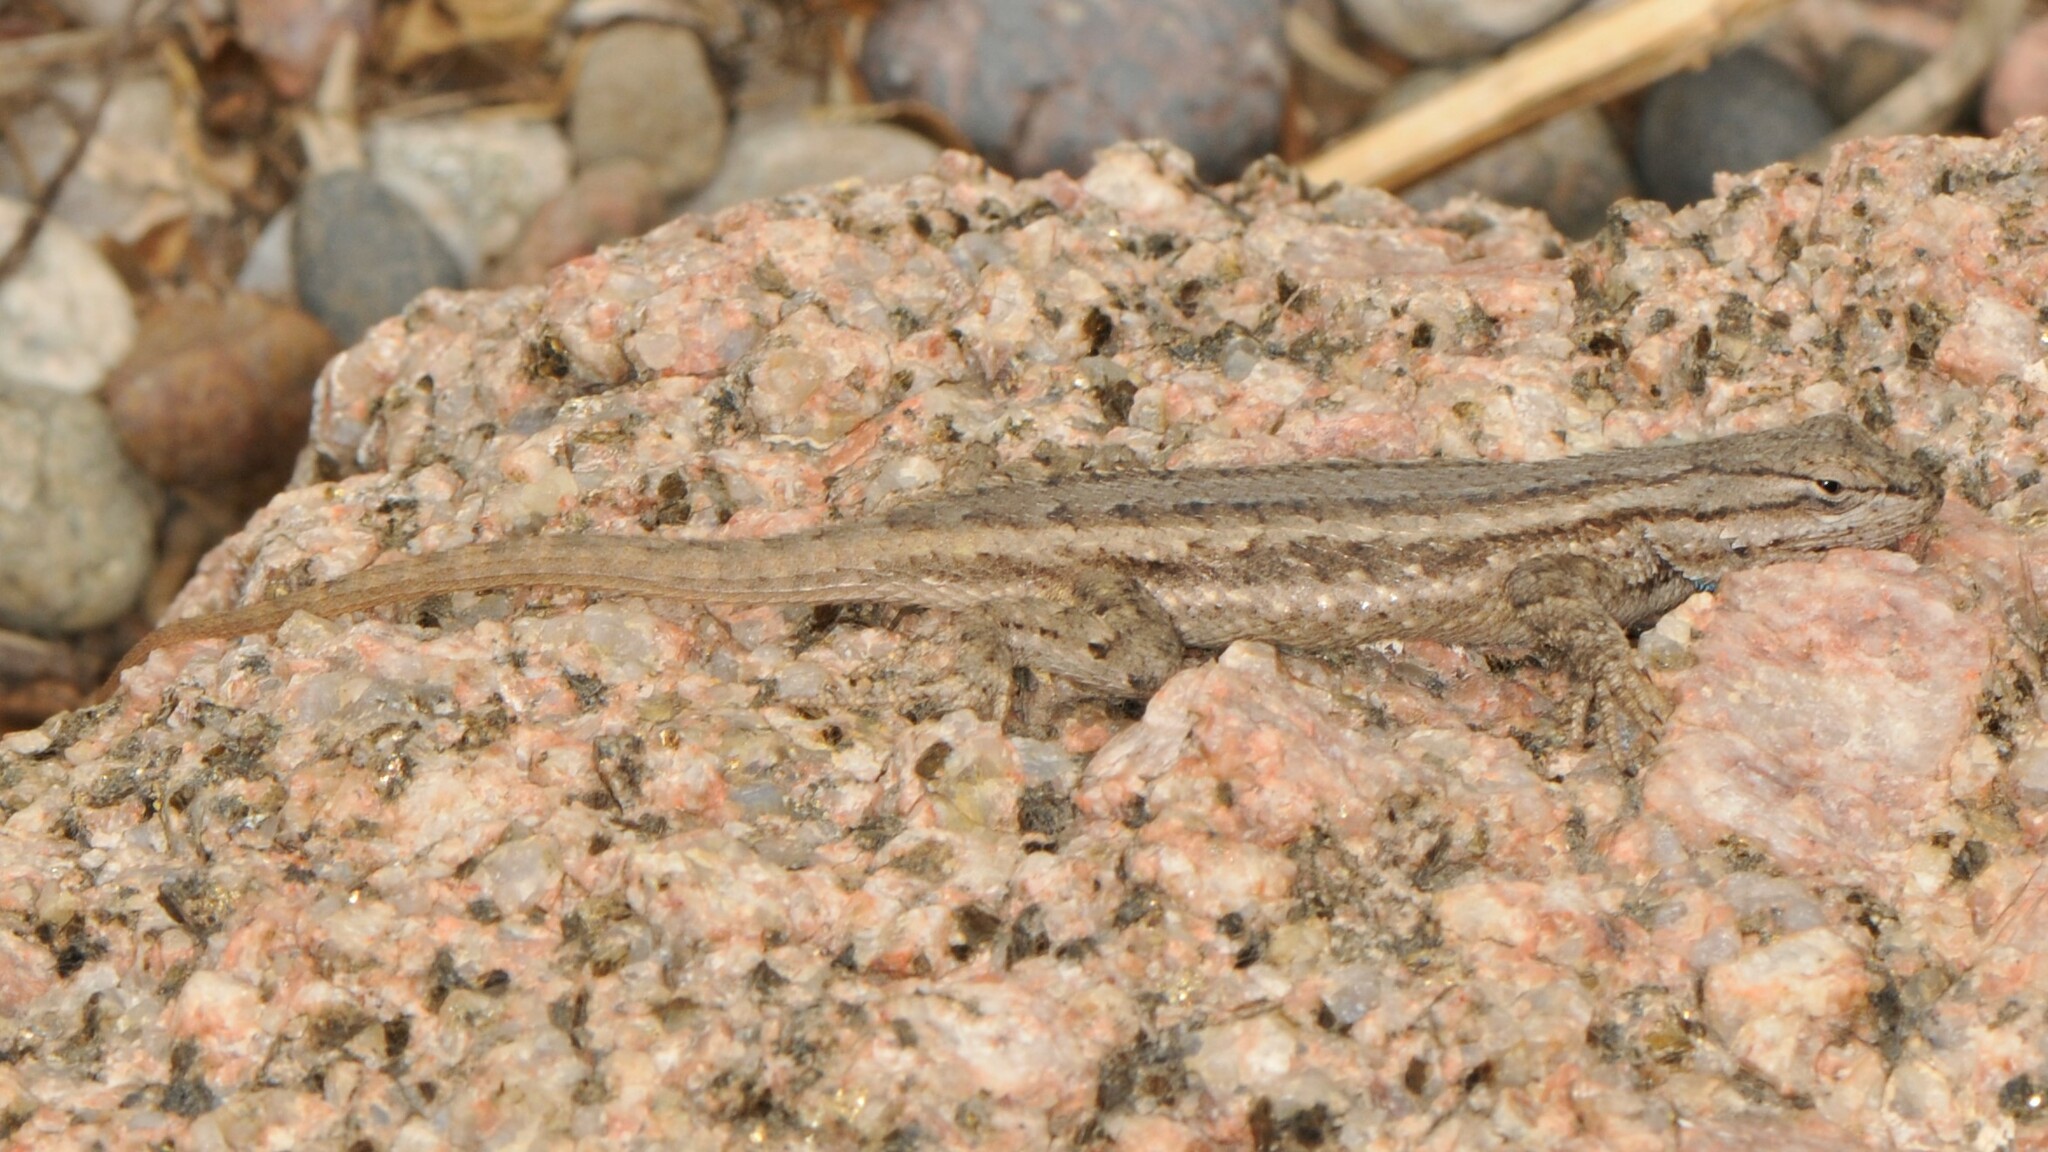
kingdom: Animalia
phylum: Chordata
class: Squamata
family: Phrynosomatidae
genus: Sceloporus
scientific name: Sceloporus cowlesi
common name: White sands prairie lizard
